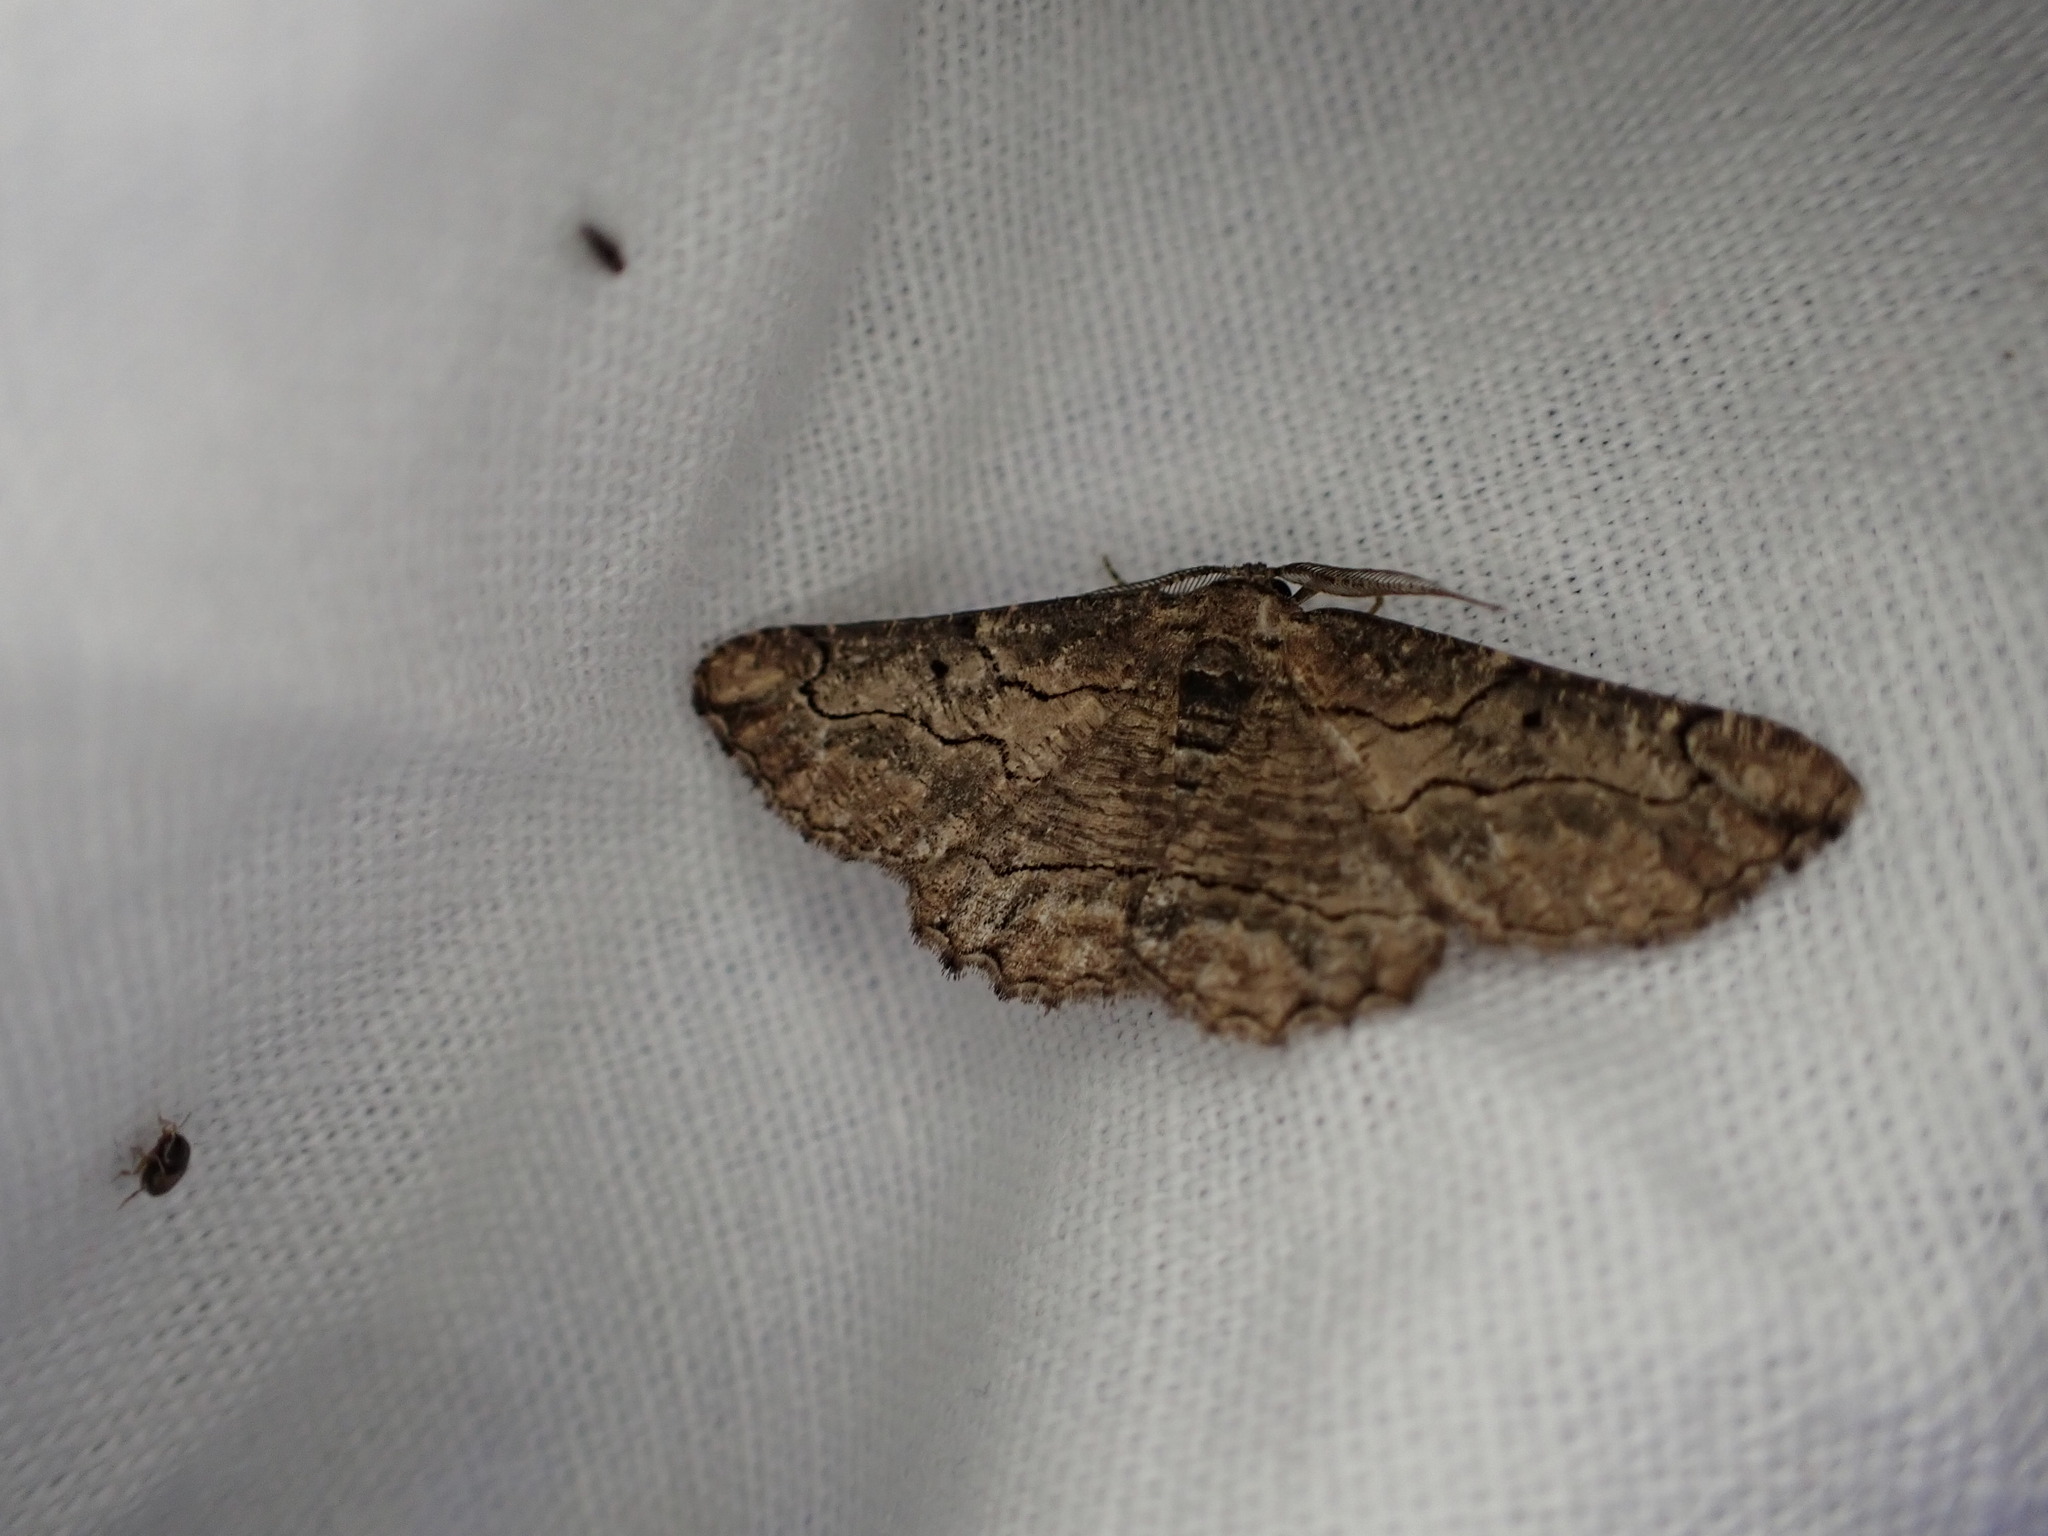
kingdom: Animalia
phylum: Arthropoda
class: Insecta
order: Lepidoptera
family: Geometridae
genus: Menophra
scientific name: Menophra japygiaria
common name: Brassy waved umber
